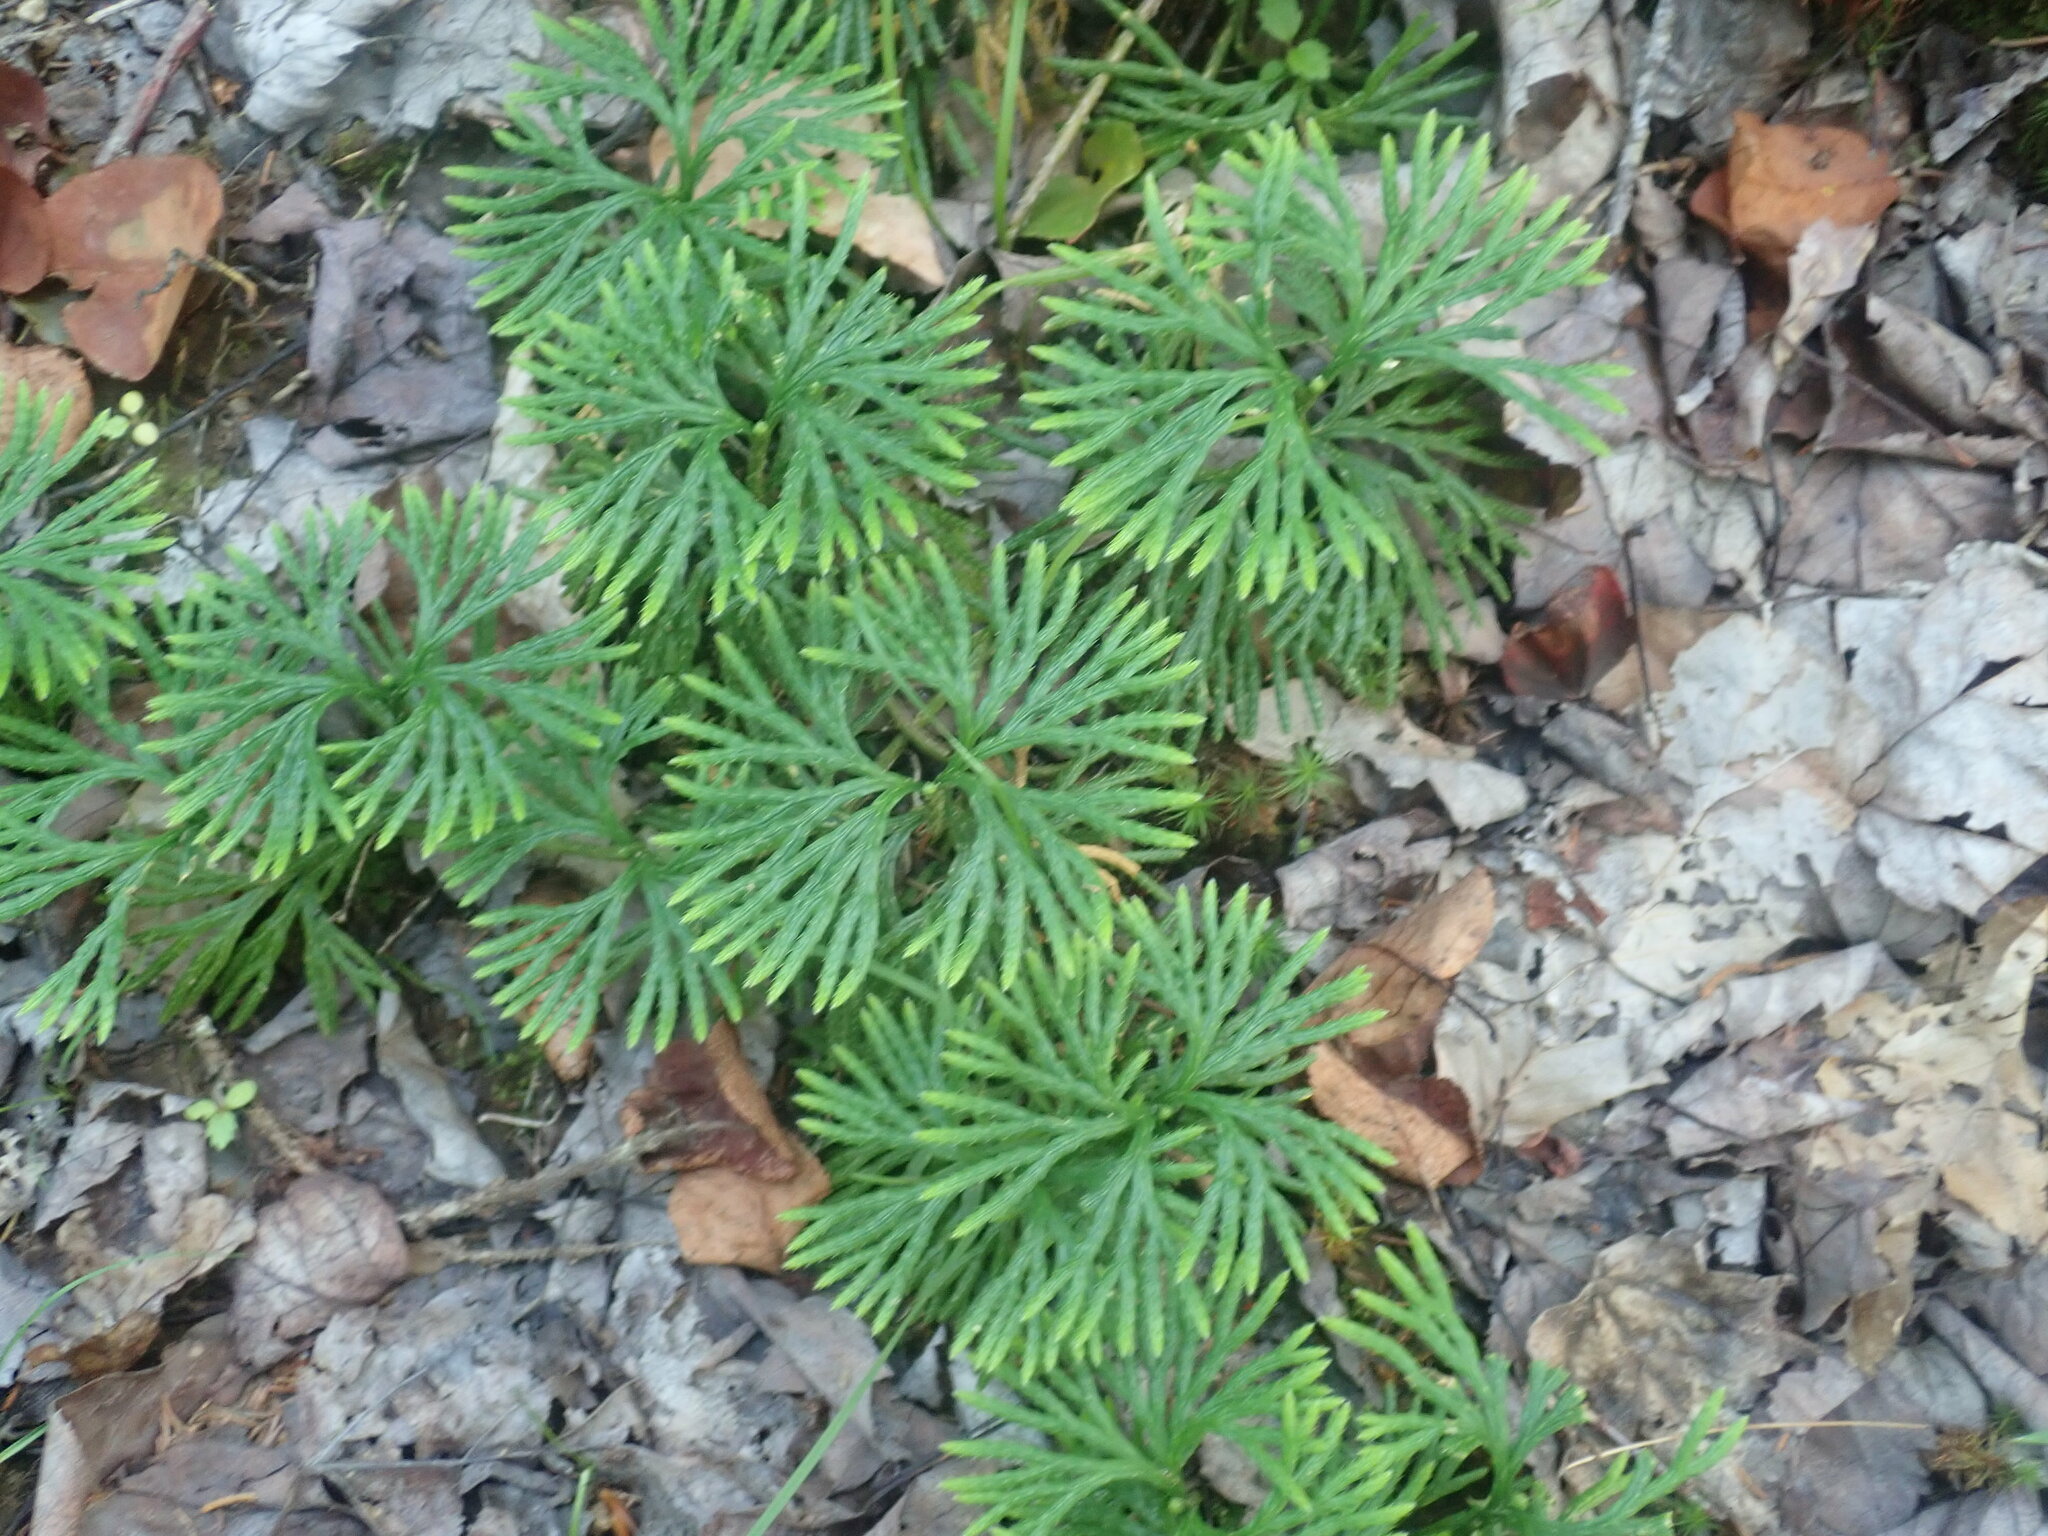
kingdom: Plantae
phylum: Tracheophyta
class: Lycopodiopsida
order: Lycopodiales
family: Lycopodiaceae
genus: Diphasiastrum
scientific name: Diphasiastrum digitatum
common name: Southern running-pine
